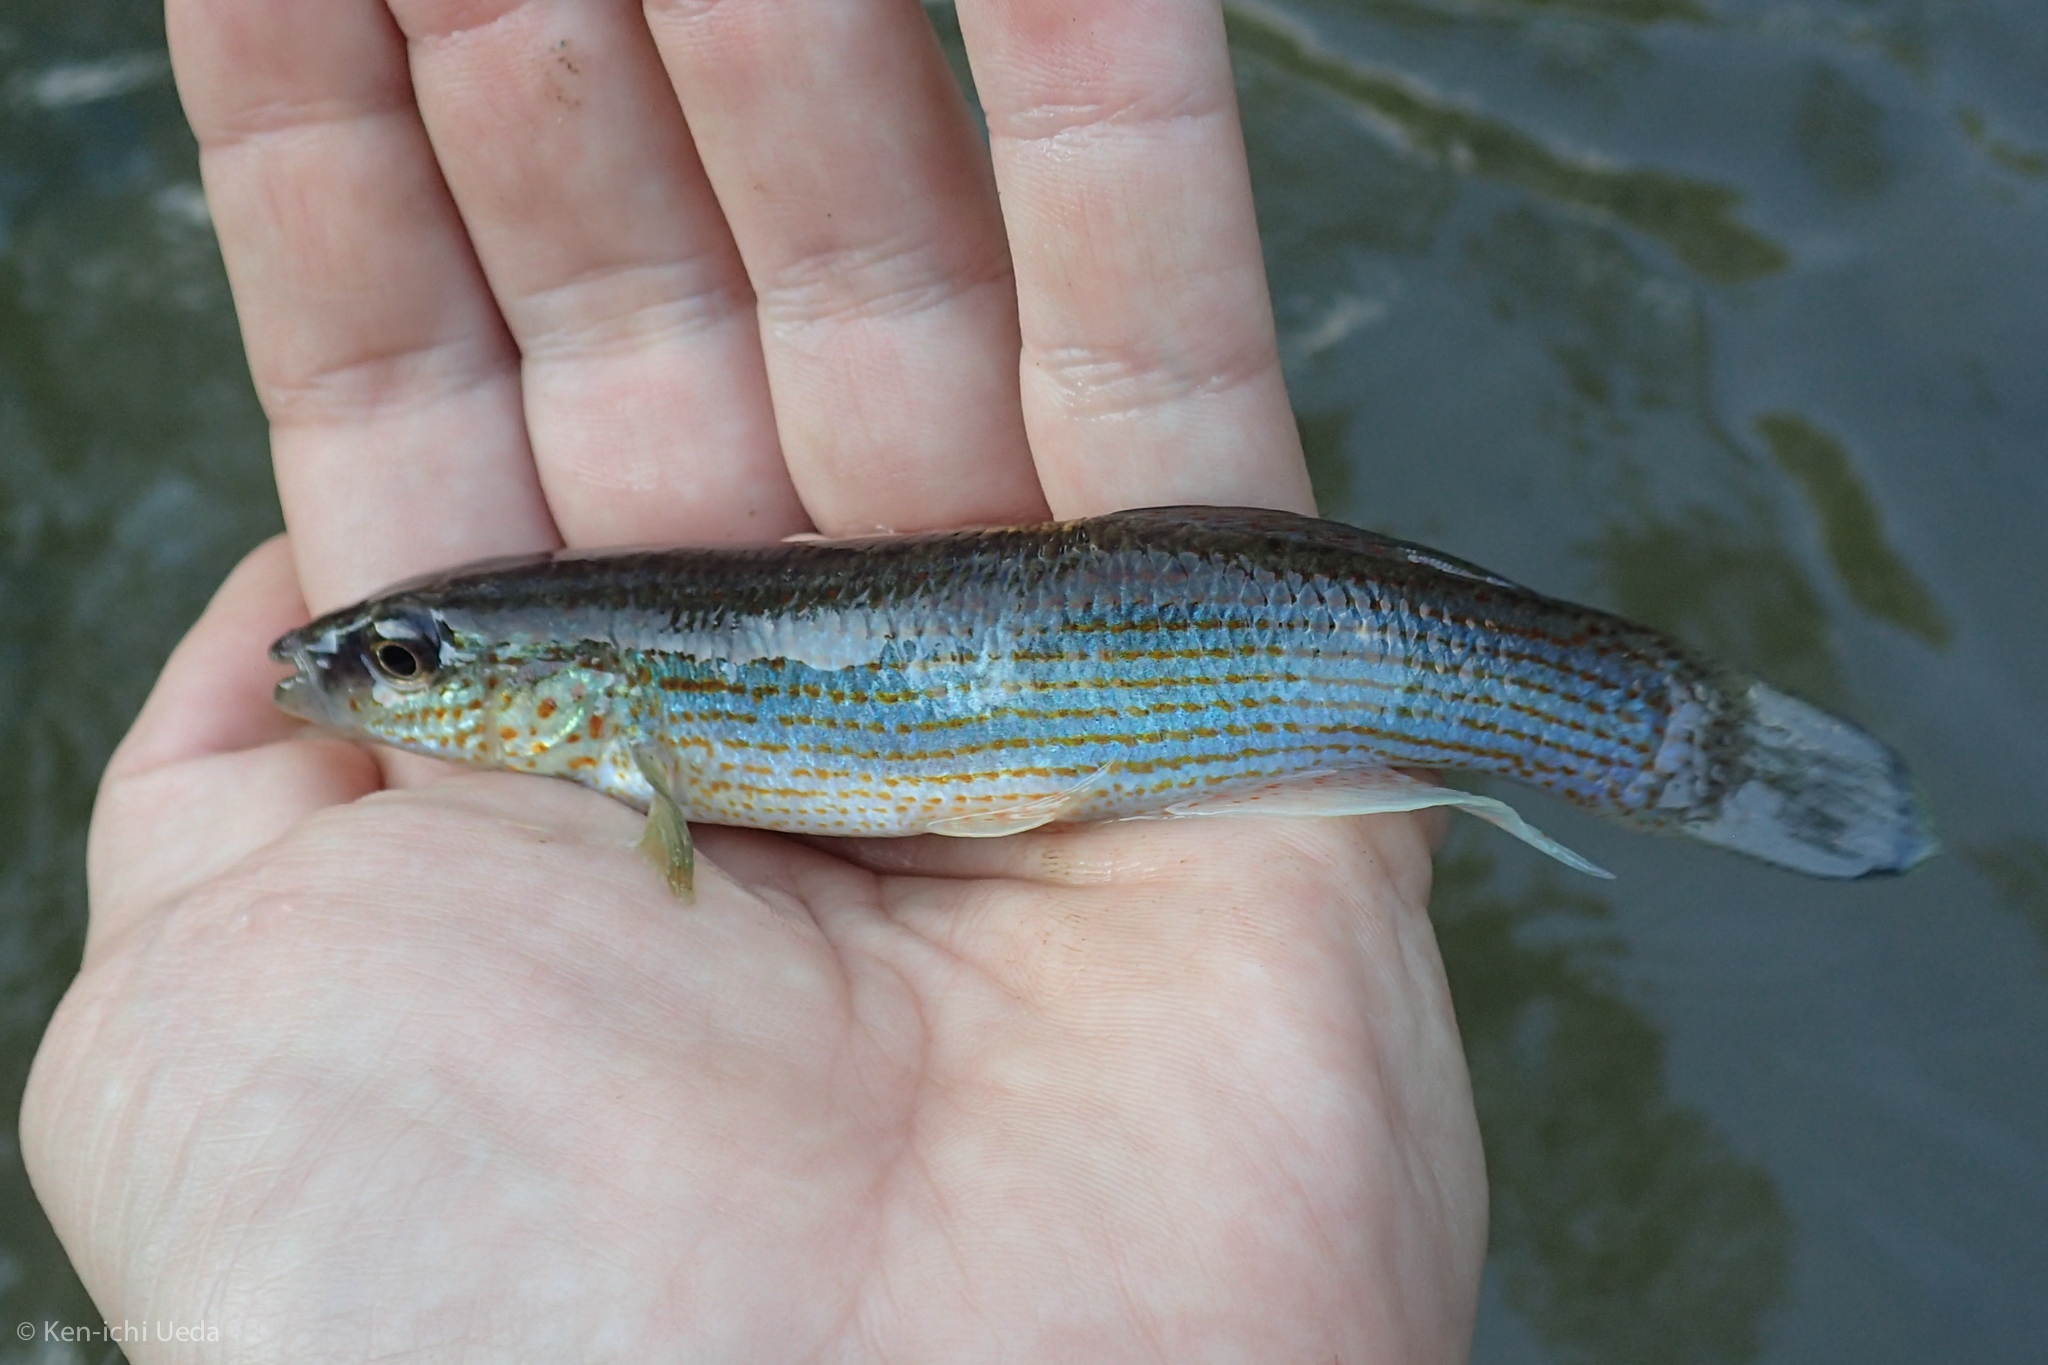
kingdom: Animalia
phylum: Chordata
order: Cyprinodontiformes
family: Fundulidae
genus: Fundulus
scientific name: Fundulus catenatus
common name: Northern studfish
